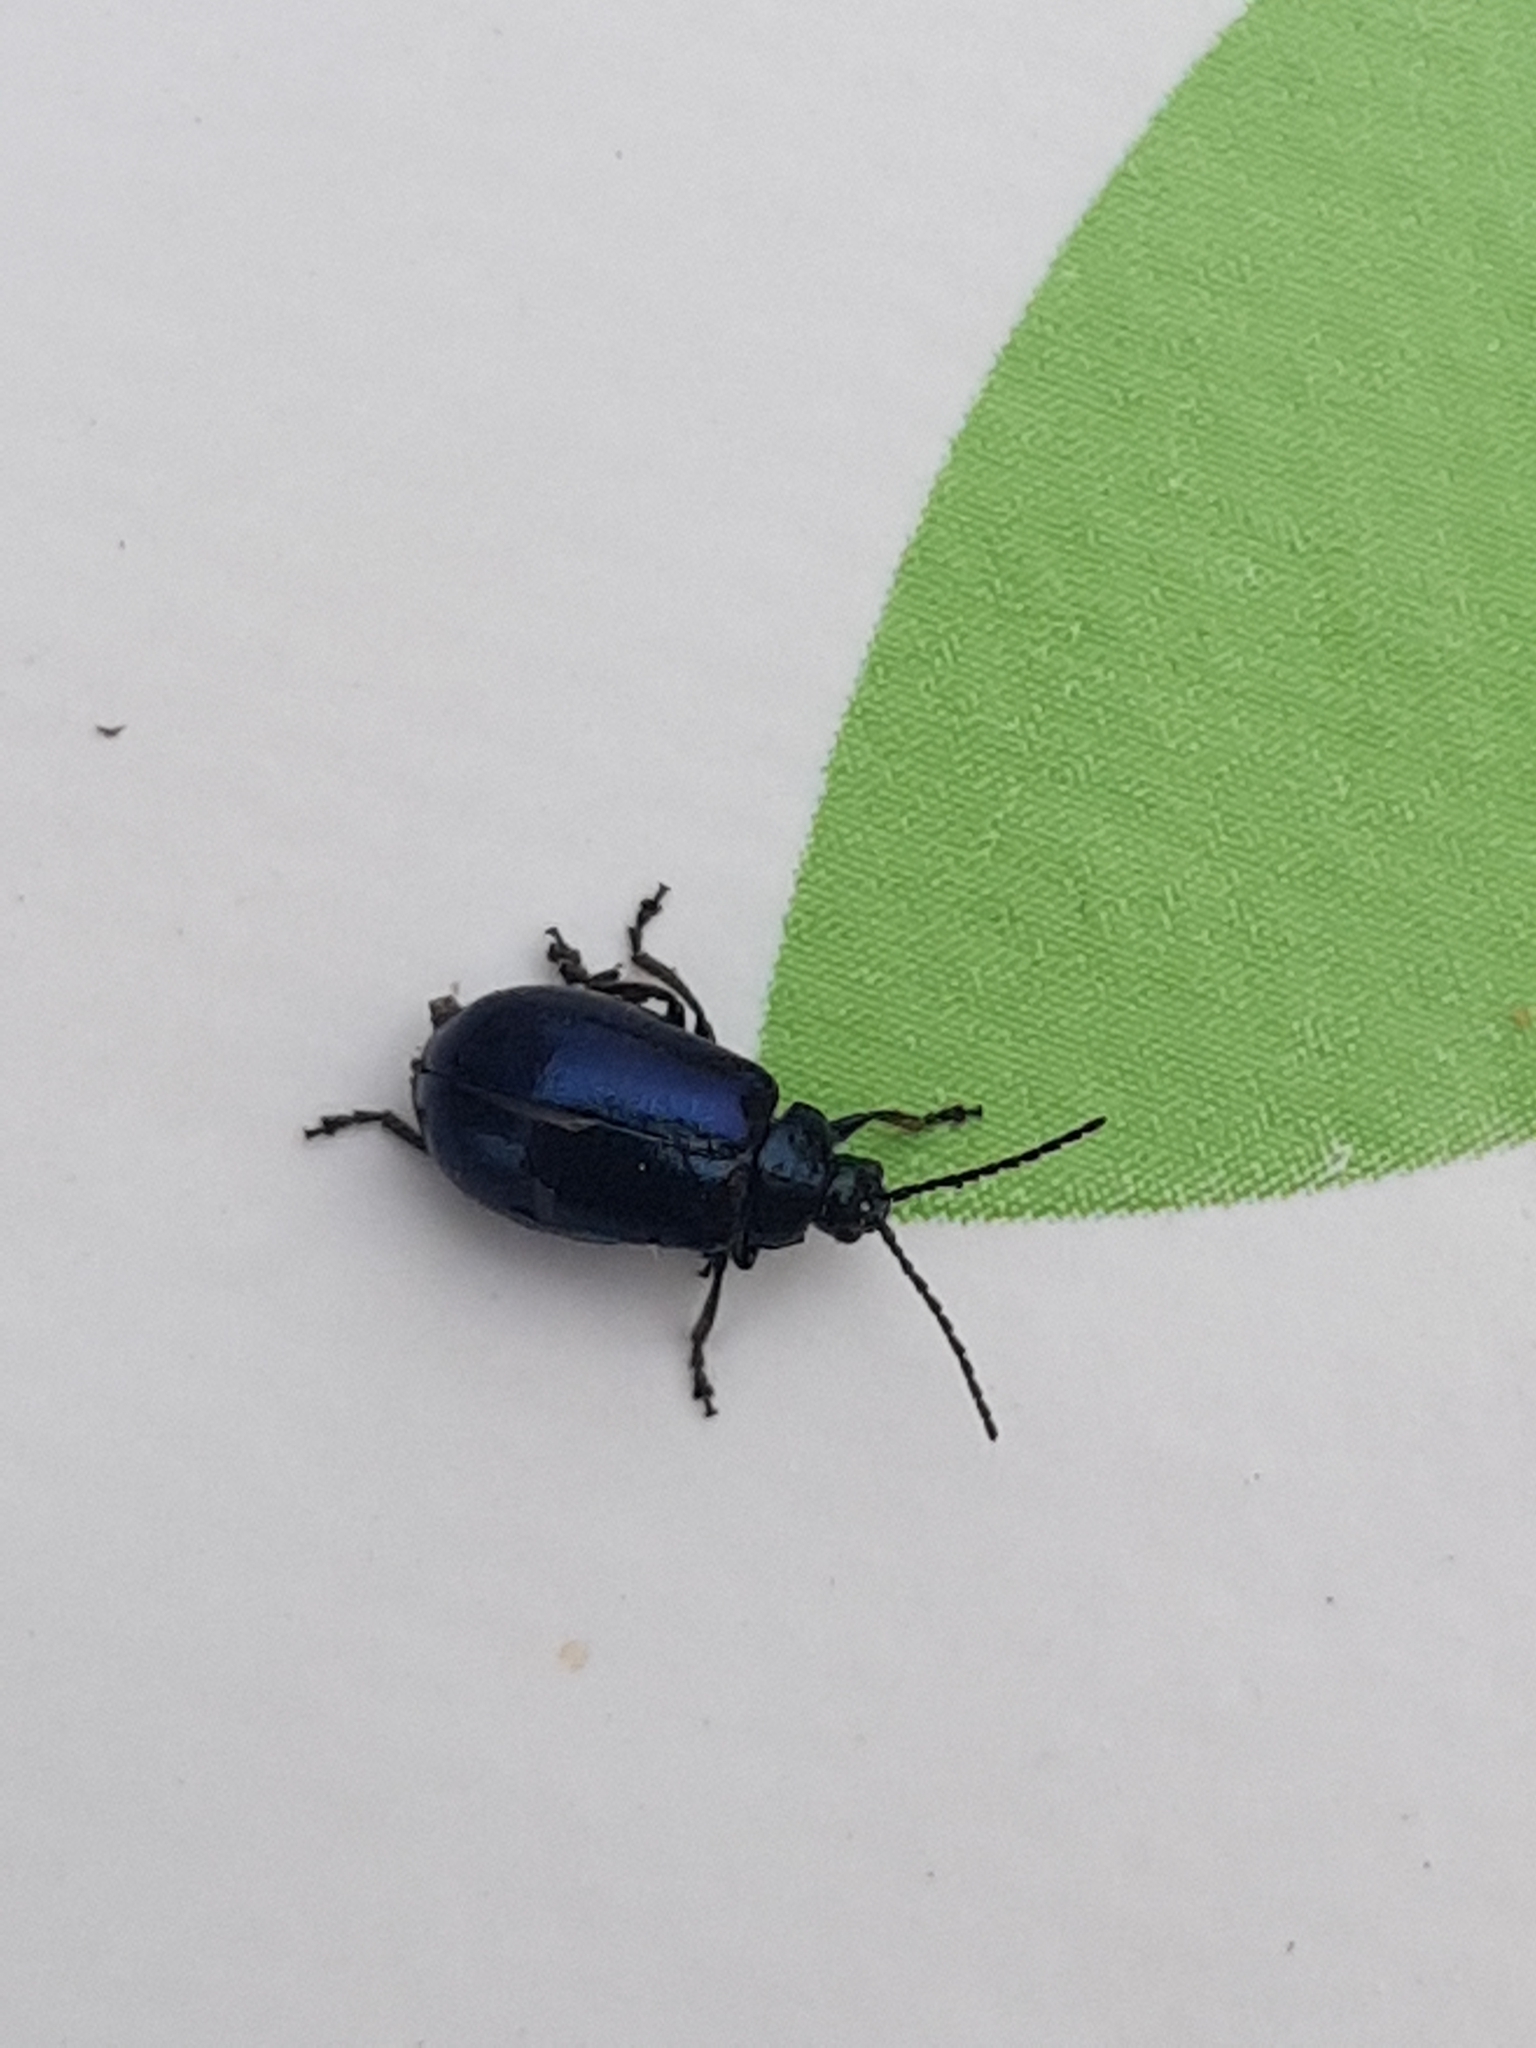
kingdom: Animalia
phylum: Arthropoda
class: Insecta
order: Coleoptera
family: Chrysomelidae
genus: Agelastica
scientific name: Agelastica alni
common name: Alder leaf beetle
